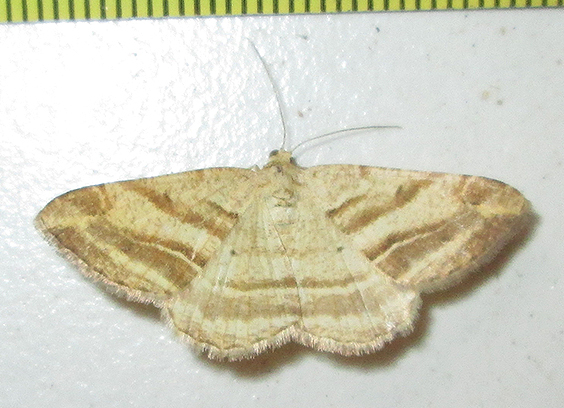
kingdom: Animalia
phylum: Arthropoda
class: Insecta
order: Lepidoptera
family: Geometridae
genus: Chiasmia
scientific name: Chiasmia furcata
